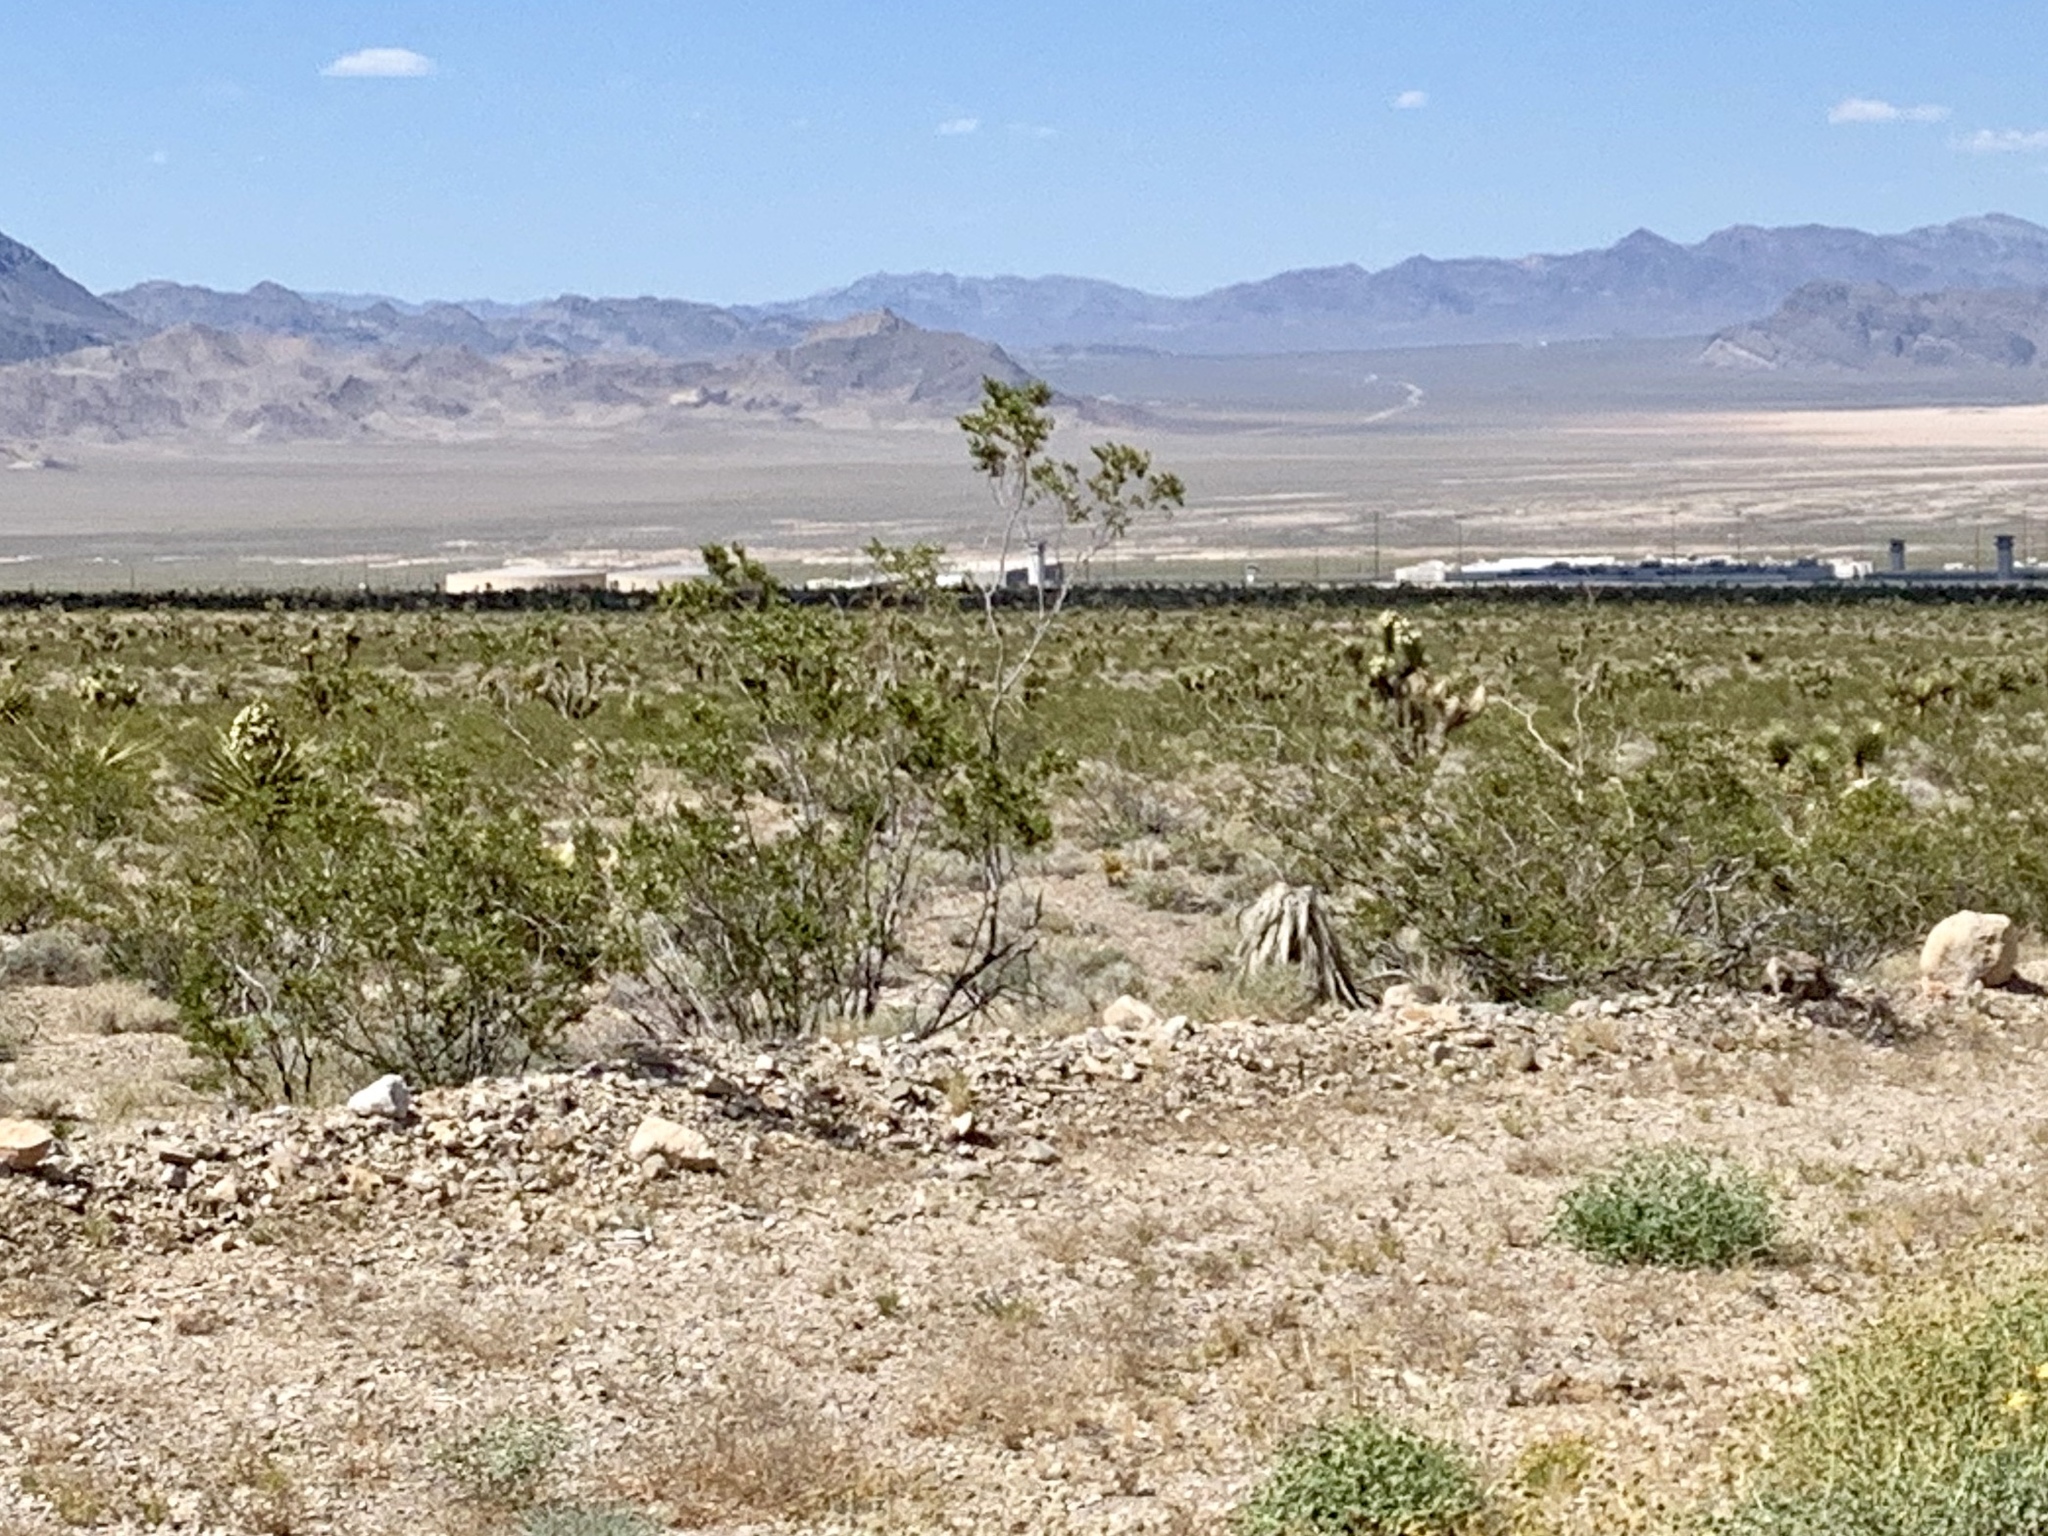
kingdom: Plantae
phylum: Tracheophyta
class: Magnoliopsida
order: Zygophyllales
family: Zygophyllaceae
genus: Larrea
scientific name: Larrea tridentata
